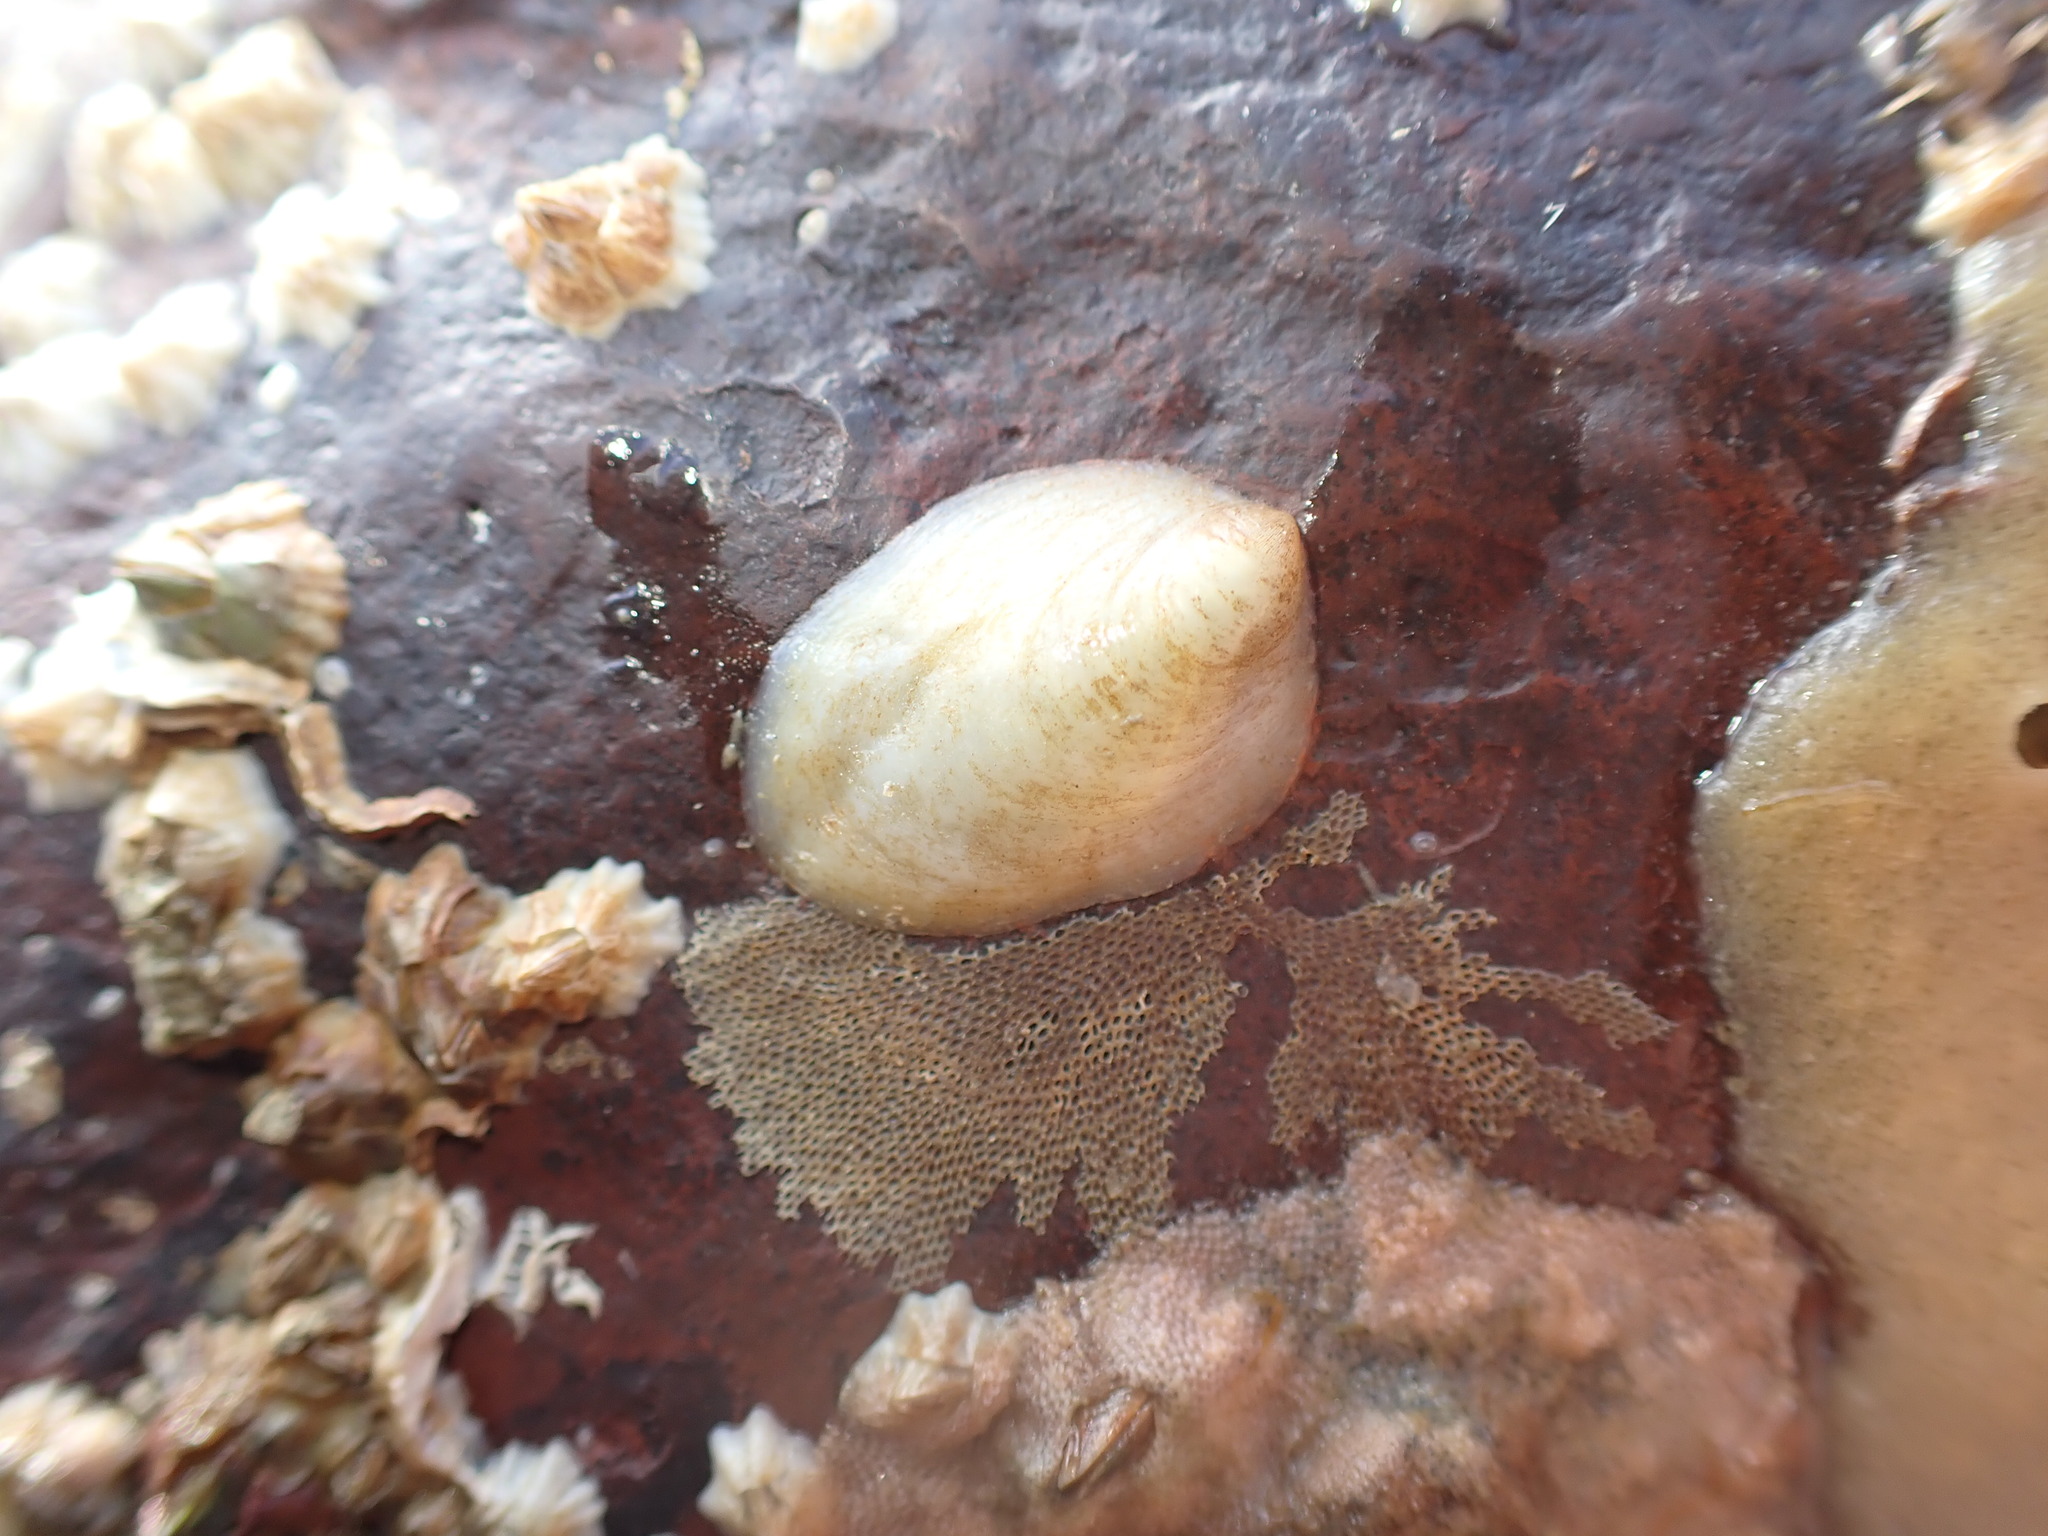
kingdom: Animalia
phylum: Mollusca
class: Gastropoda
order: Littorinimorpha
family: Calyptraeidae
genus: Maoricrypta
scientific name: Maoricrypta monoxyla
